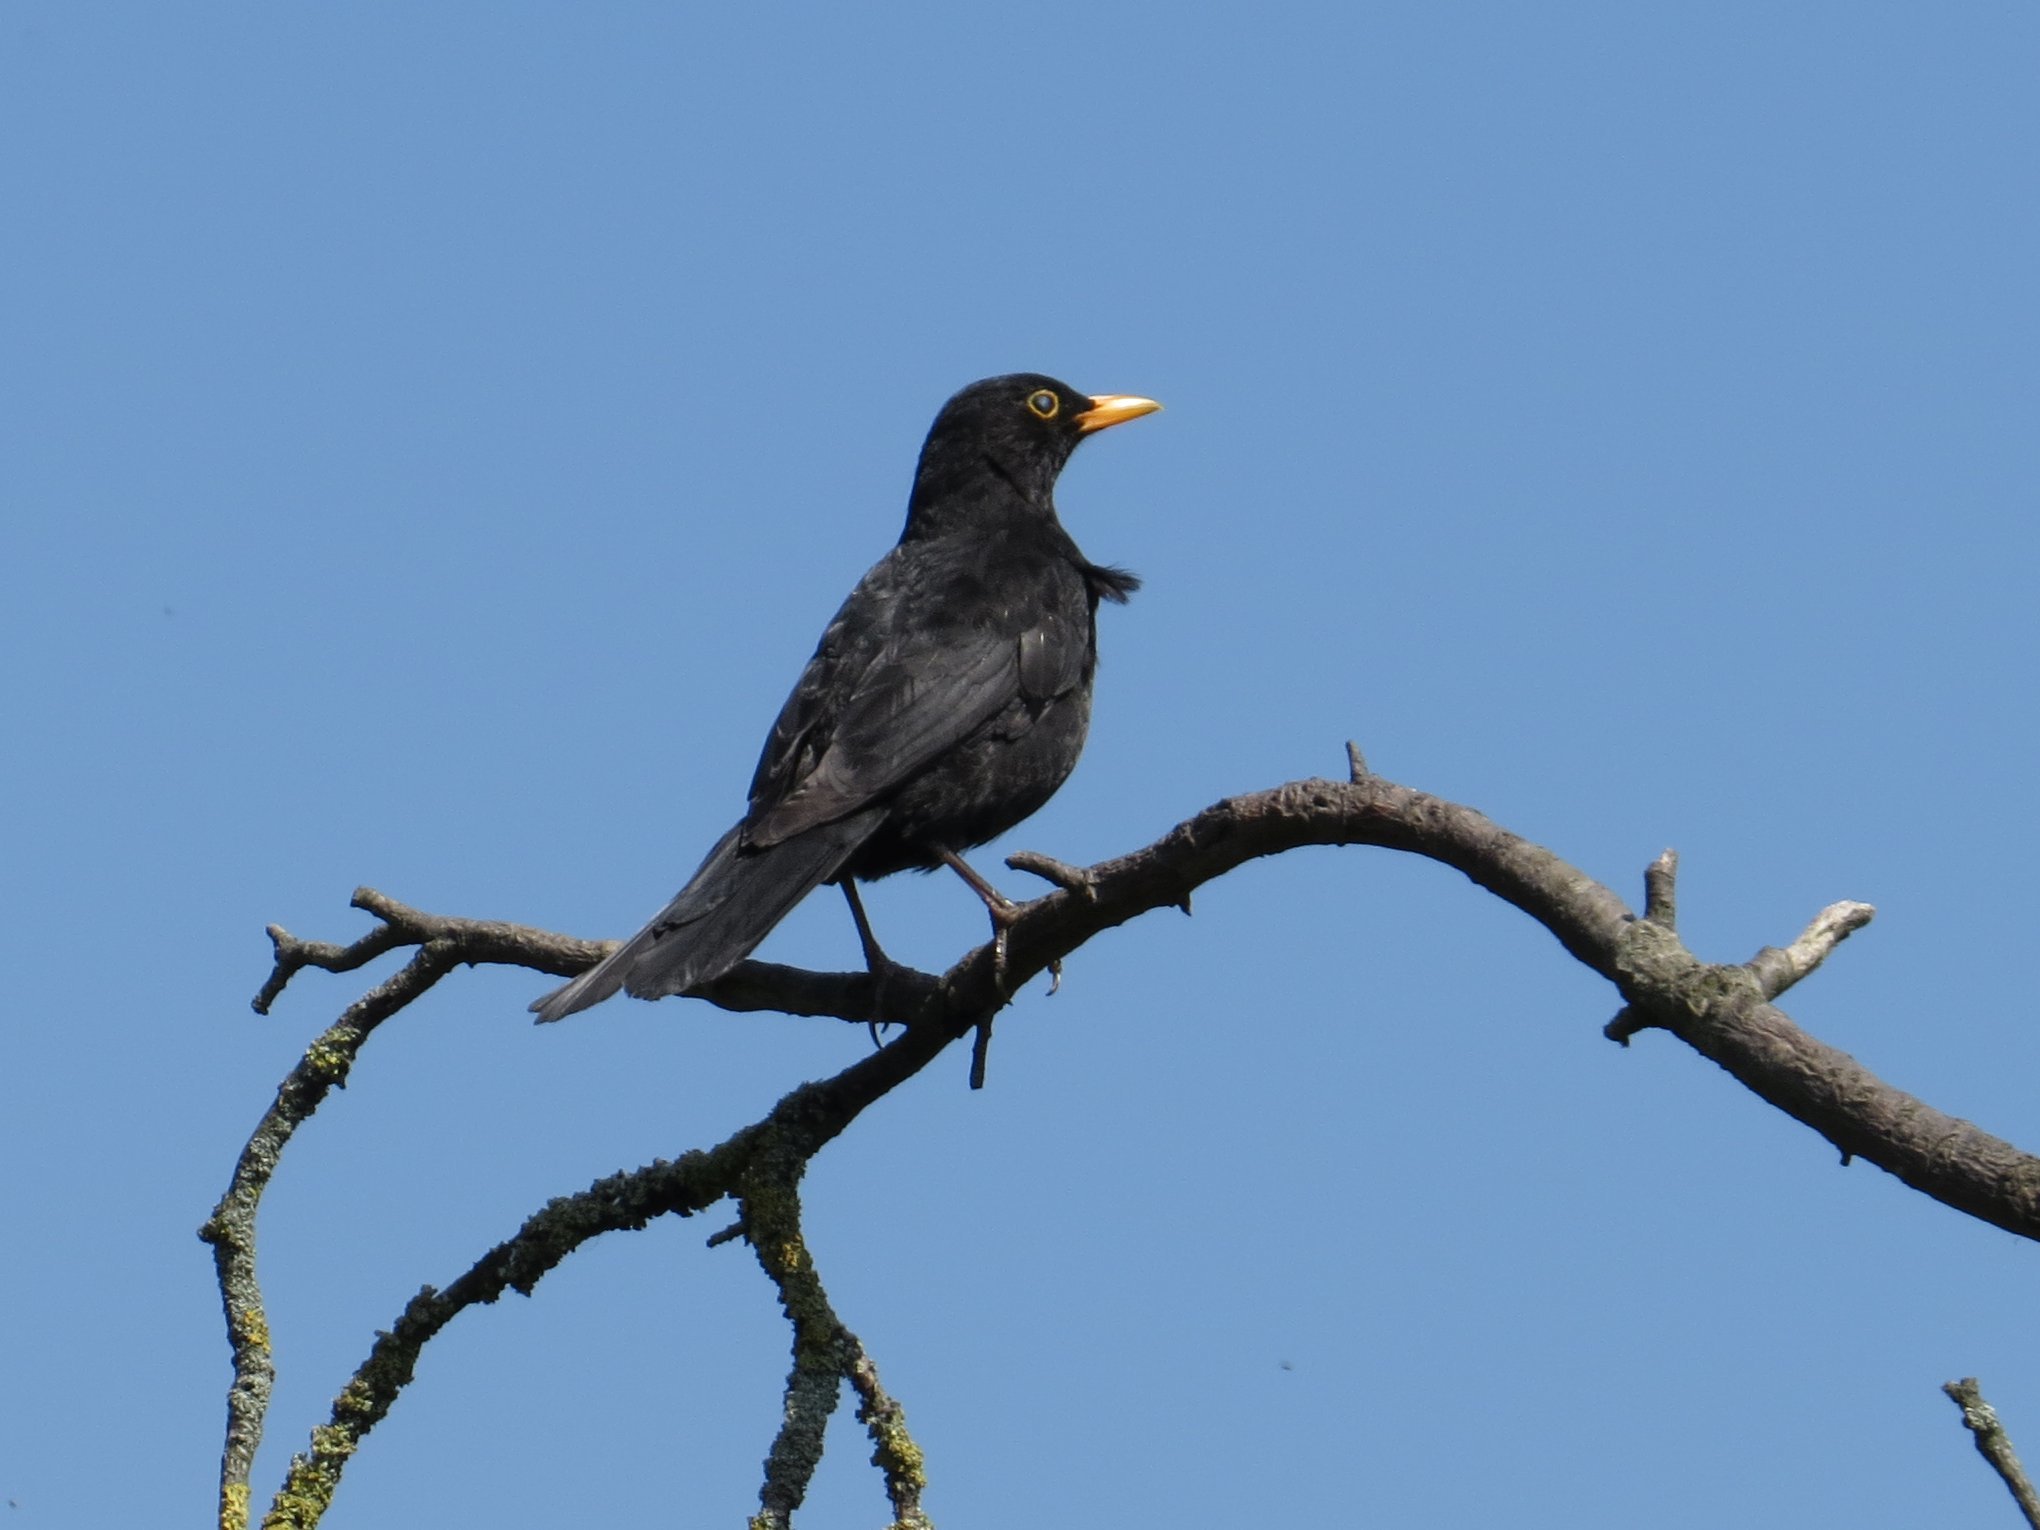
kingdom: Animalia
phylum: Chordata
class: Aves
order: Passeriformes
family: Turdidae
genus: Turdus
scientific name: Turdus merula
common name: Common blackbird
